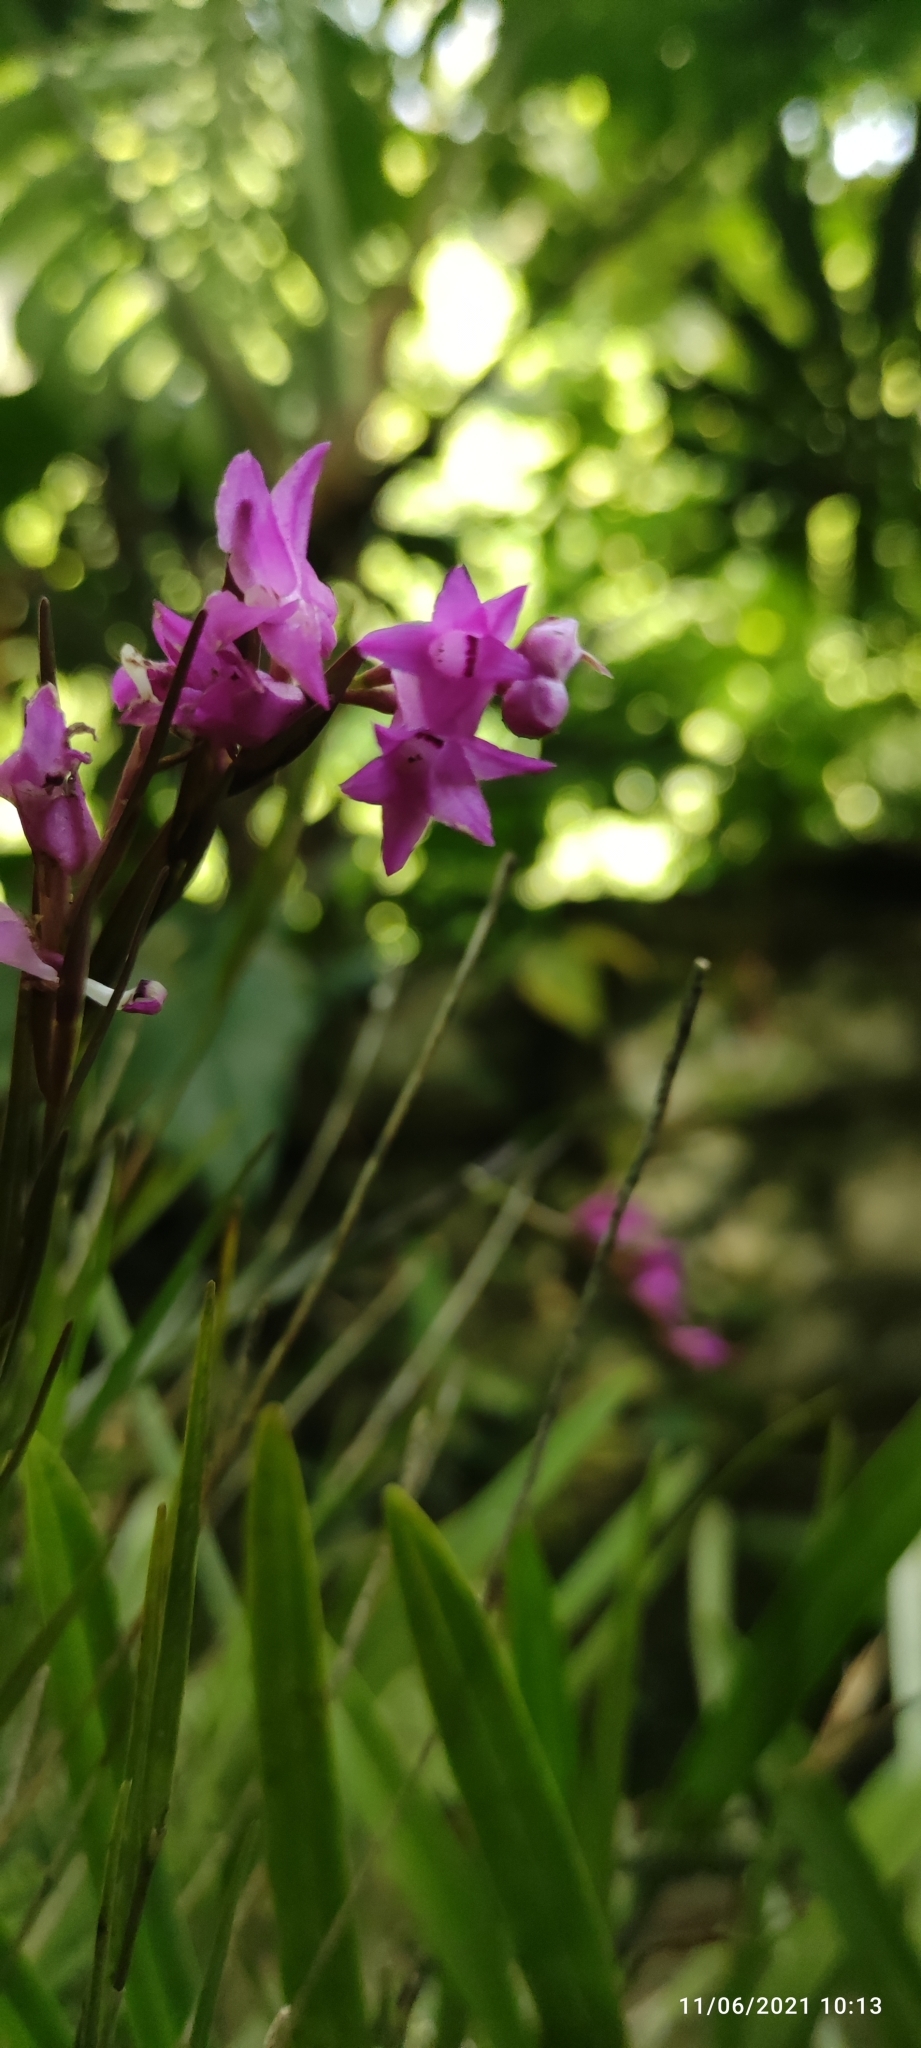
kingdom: Plantae
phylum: Tracheophyta
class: Liliopsida
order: Asparagales
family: Orchidaceae
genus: Isochilus
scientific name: Isochilus unilateralis
